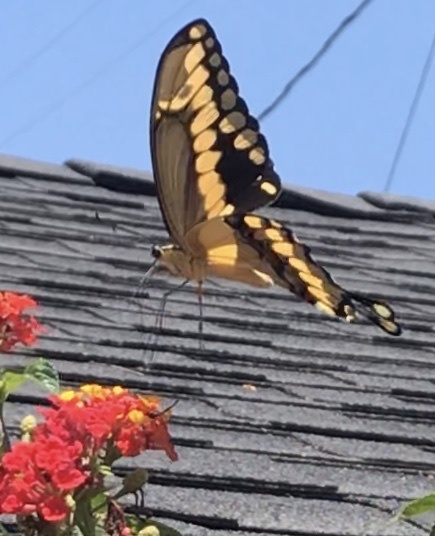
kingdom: Animalia
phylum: Arthropoda
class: Insecta
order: Lepidoptera
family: Papilionidae
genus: Papilio
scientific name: Papilio rumiko
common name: Western giant swallowtail
